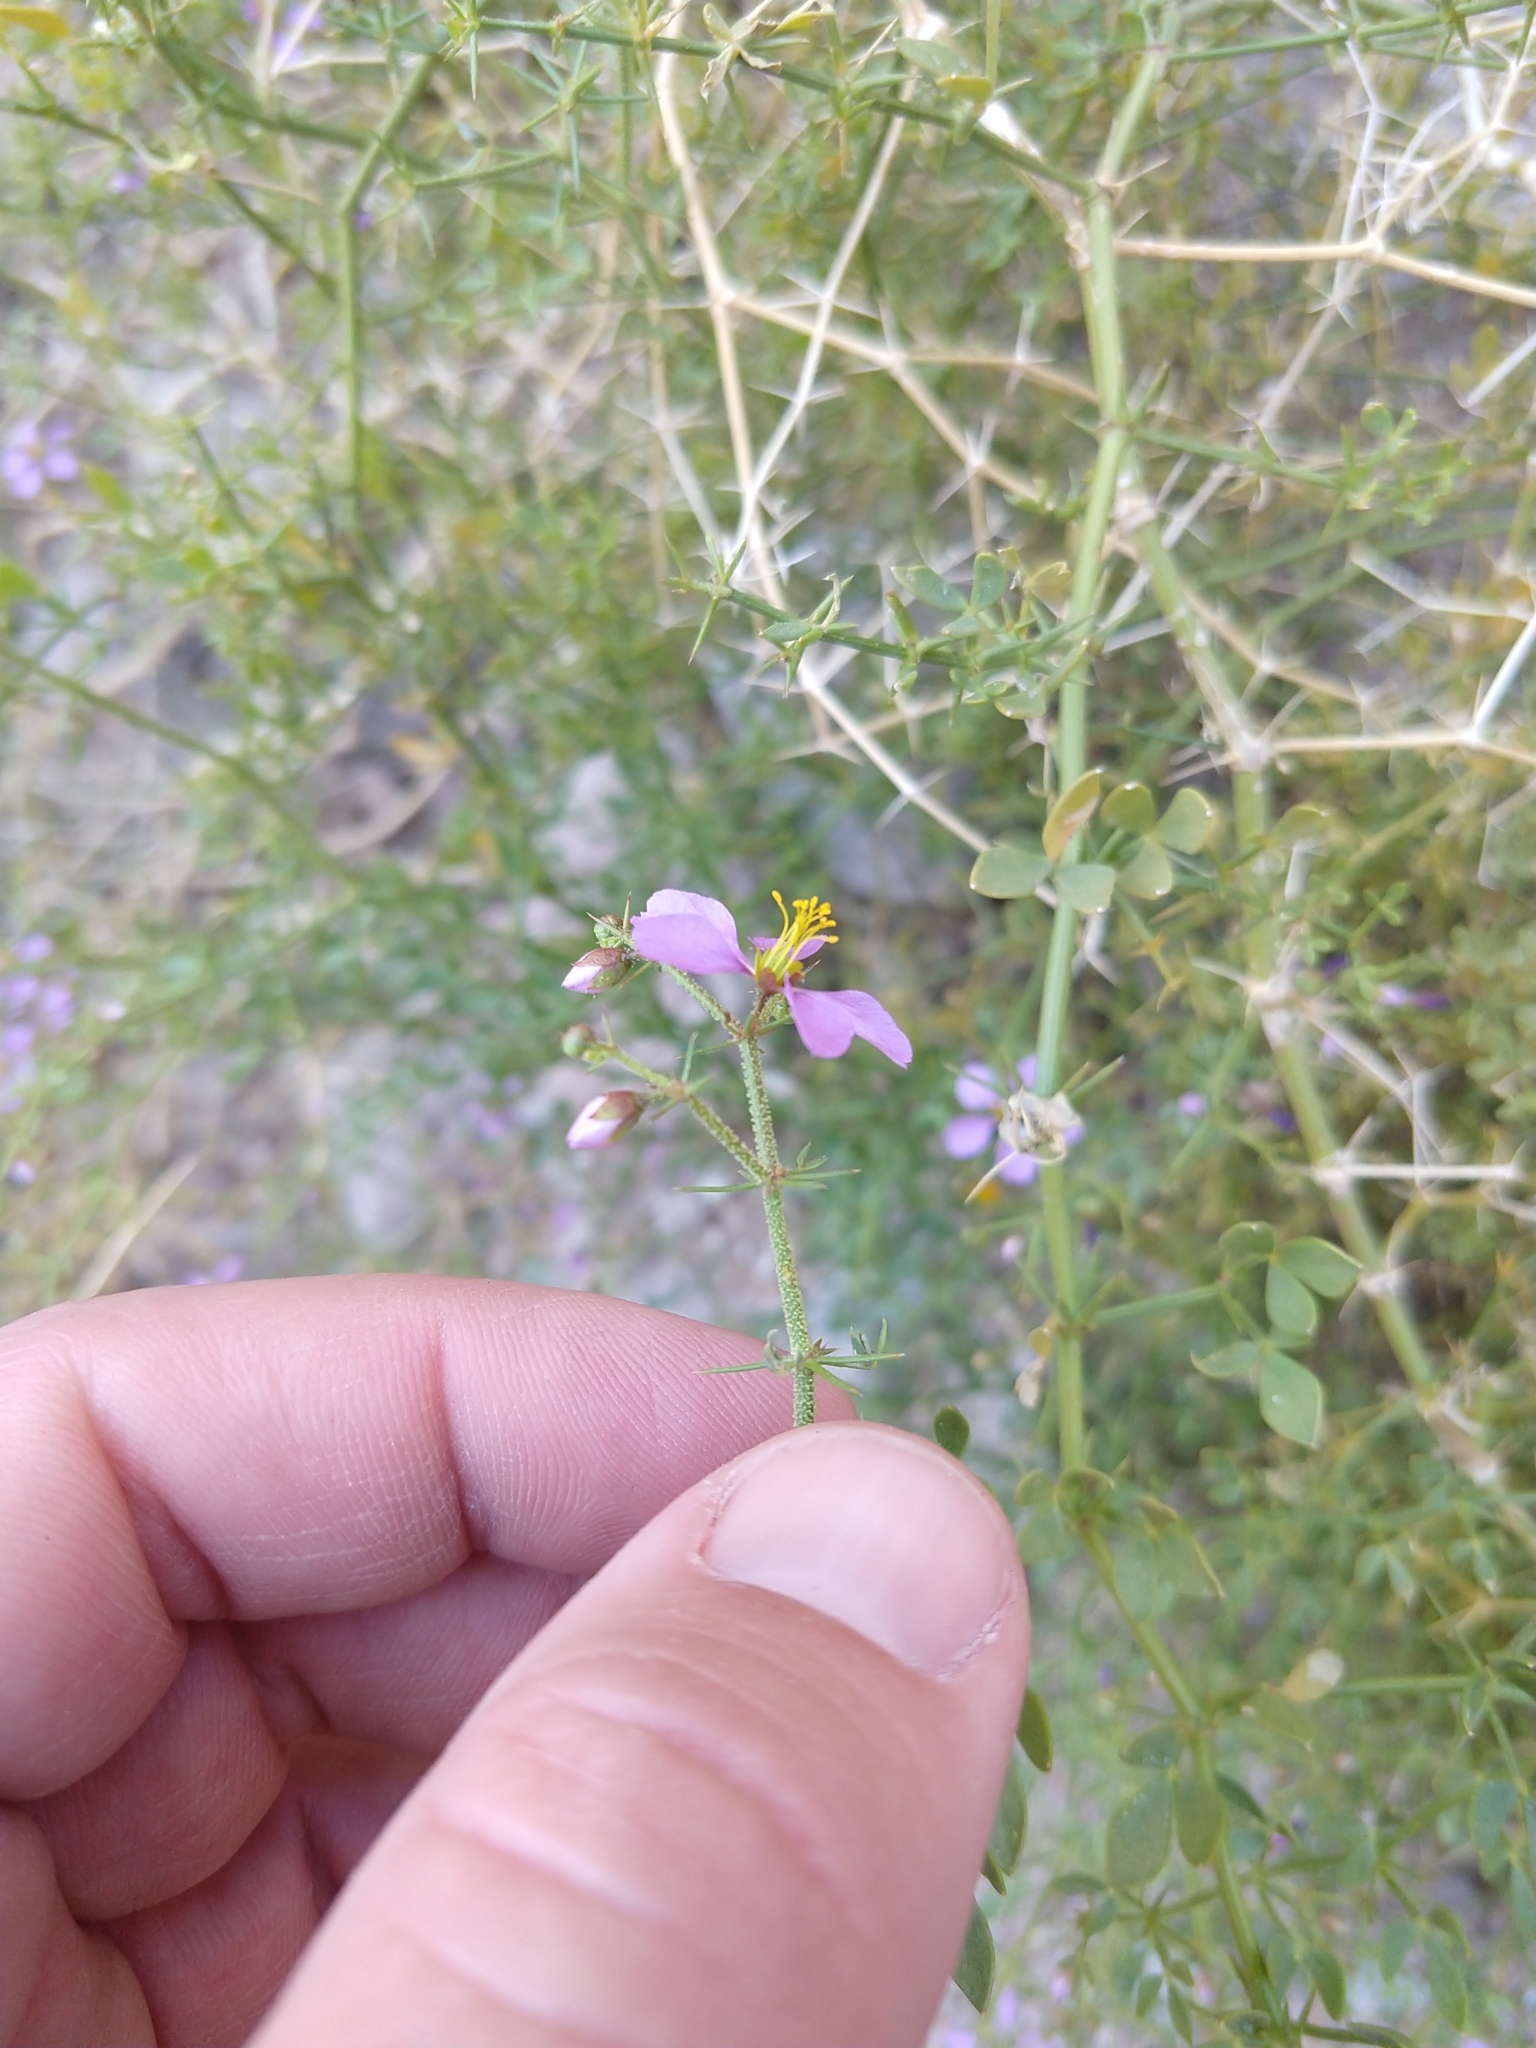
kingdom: Plantae
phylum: Tracheophyta
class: Magnoliopsida
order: Zygophyllales
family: Zygophyllaceae
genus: Fagonia
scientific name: Fagonia laevis
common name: California fagonbush
